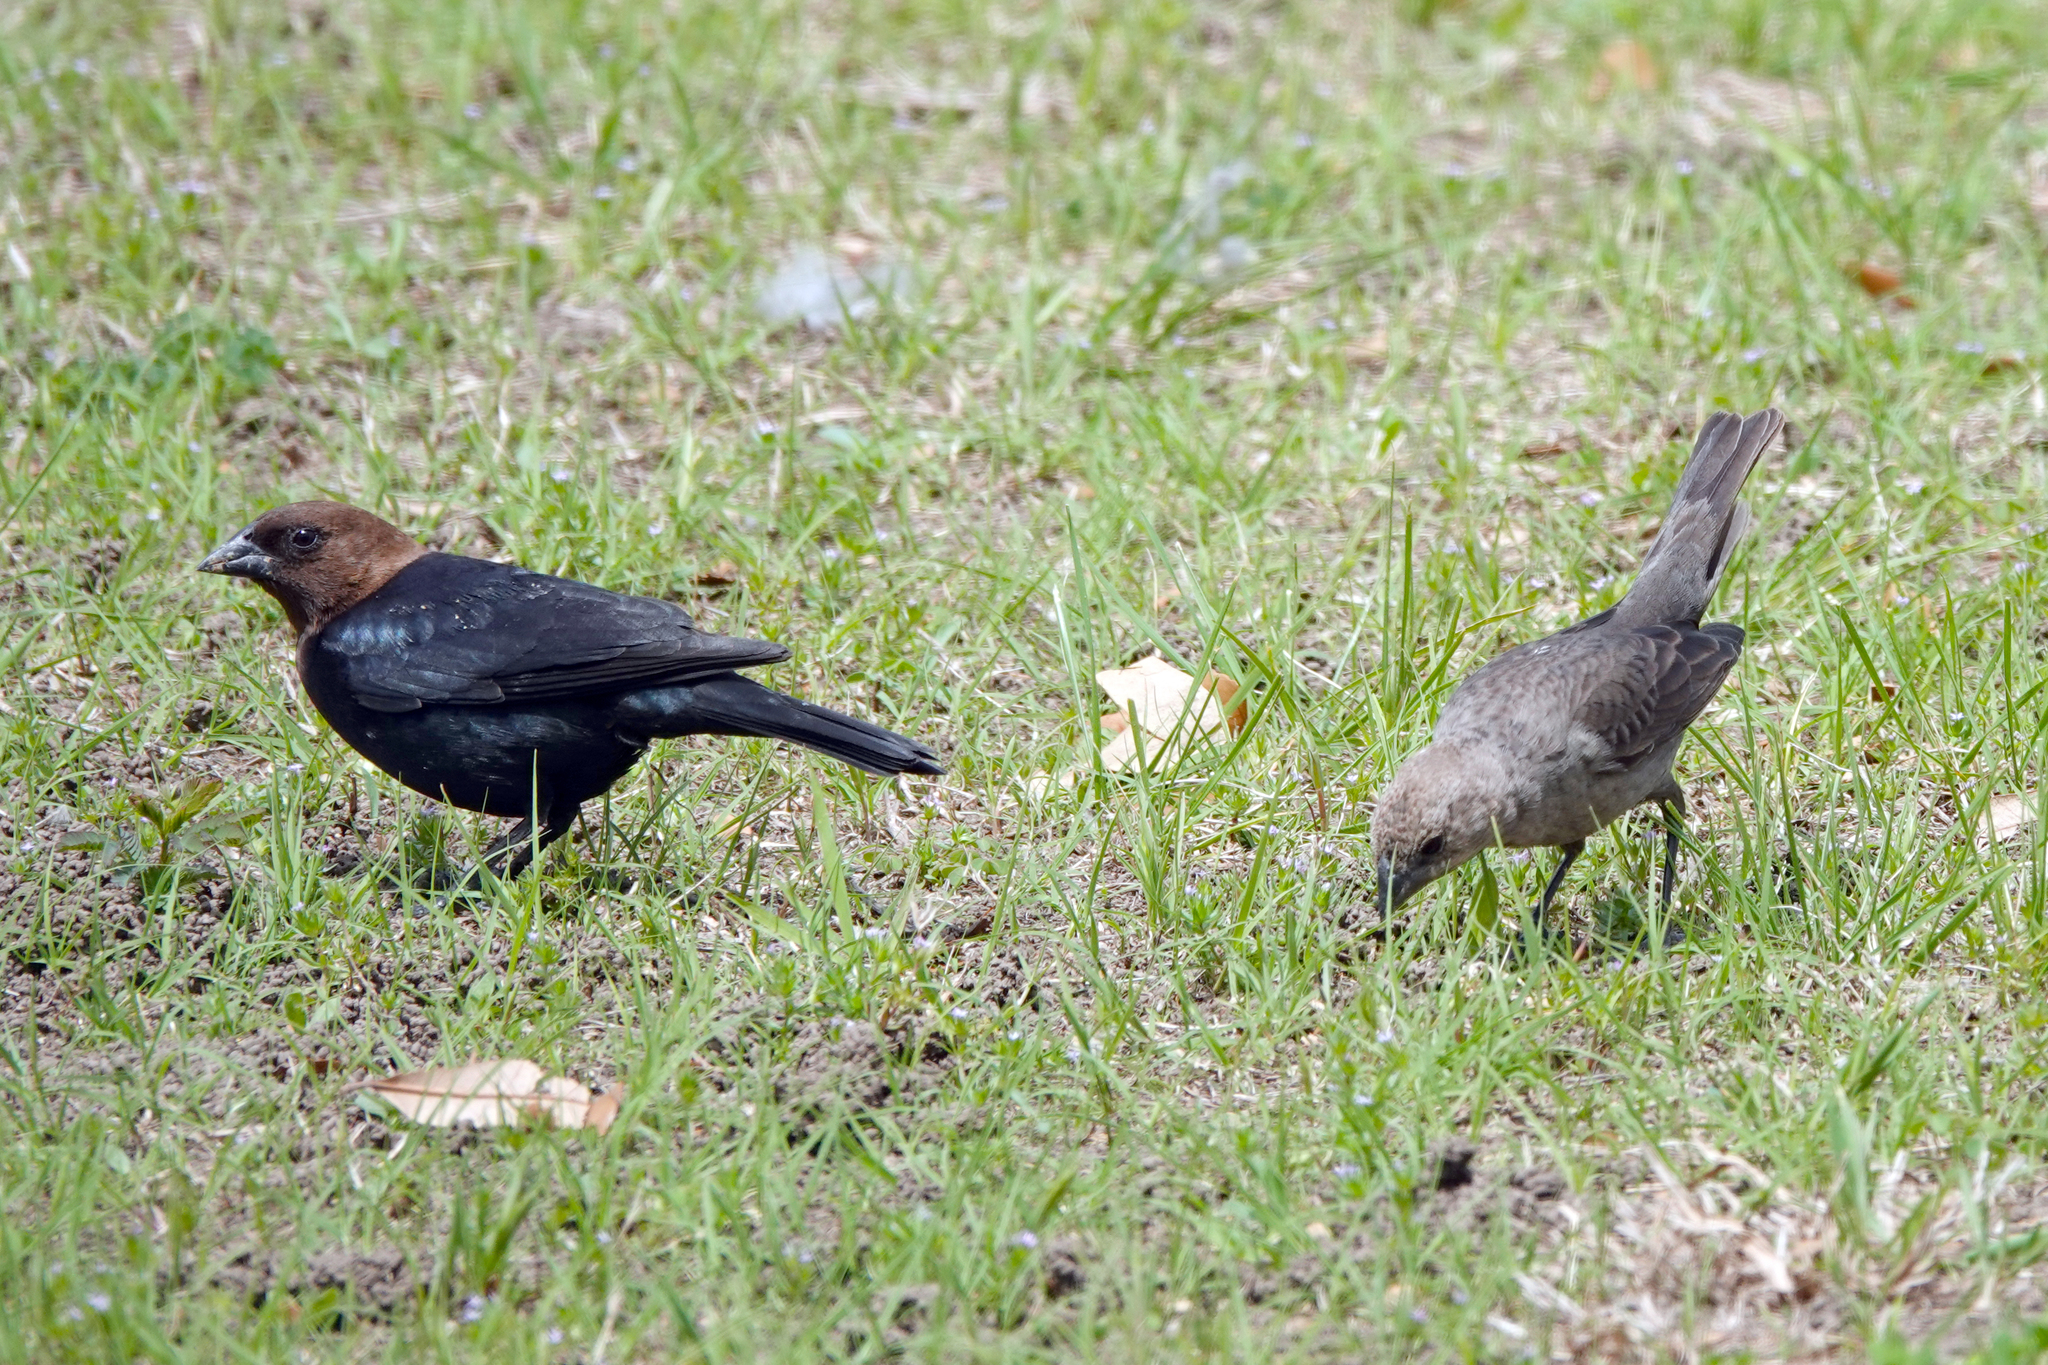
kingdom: Animalia
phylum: Chordata
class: Aves
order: Passeriformes
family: Icteridae
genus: Molothrus
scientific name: Molothrus ater
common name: Brown-headed cowbird
